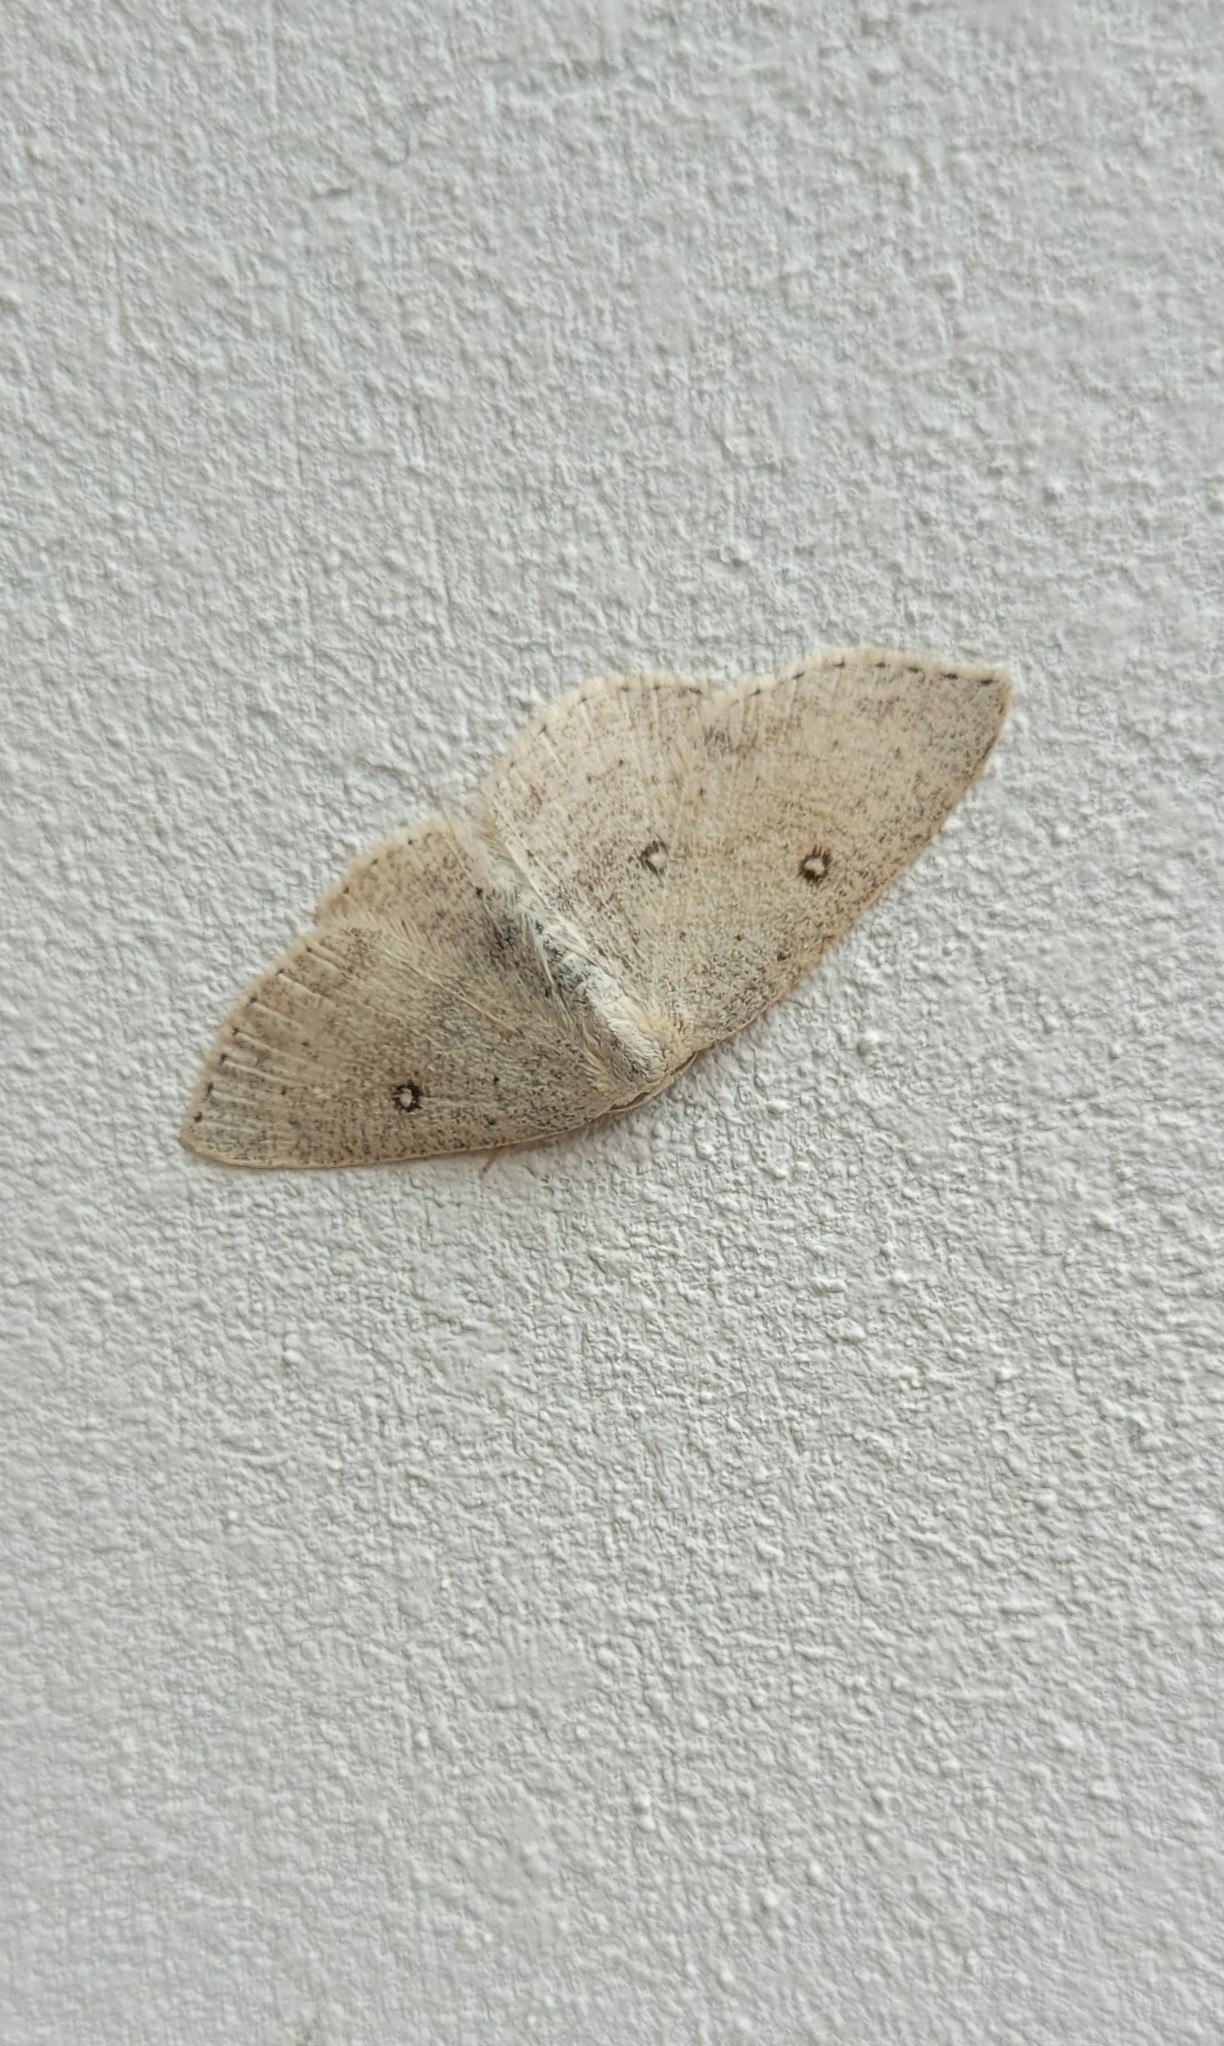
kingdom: Animalia
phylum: Arthropoda
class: Insecta
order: Lepidoptera
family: Geometridae
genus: Cyclophora
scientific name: Cyclophora albipunctata
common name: Birch mocha
